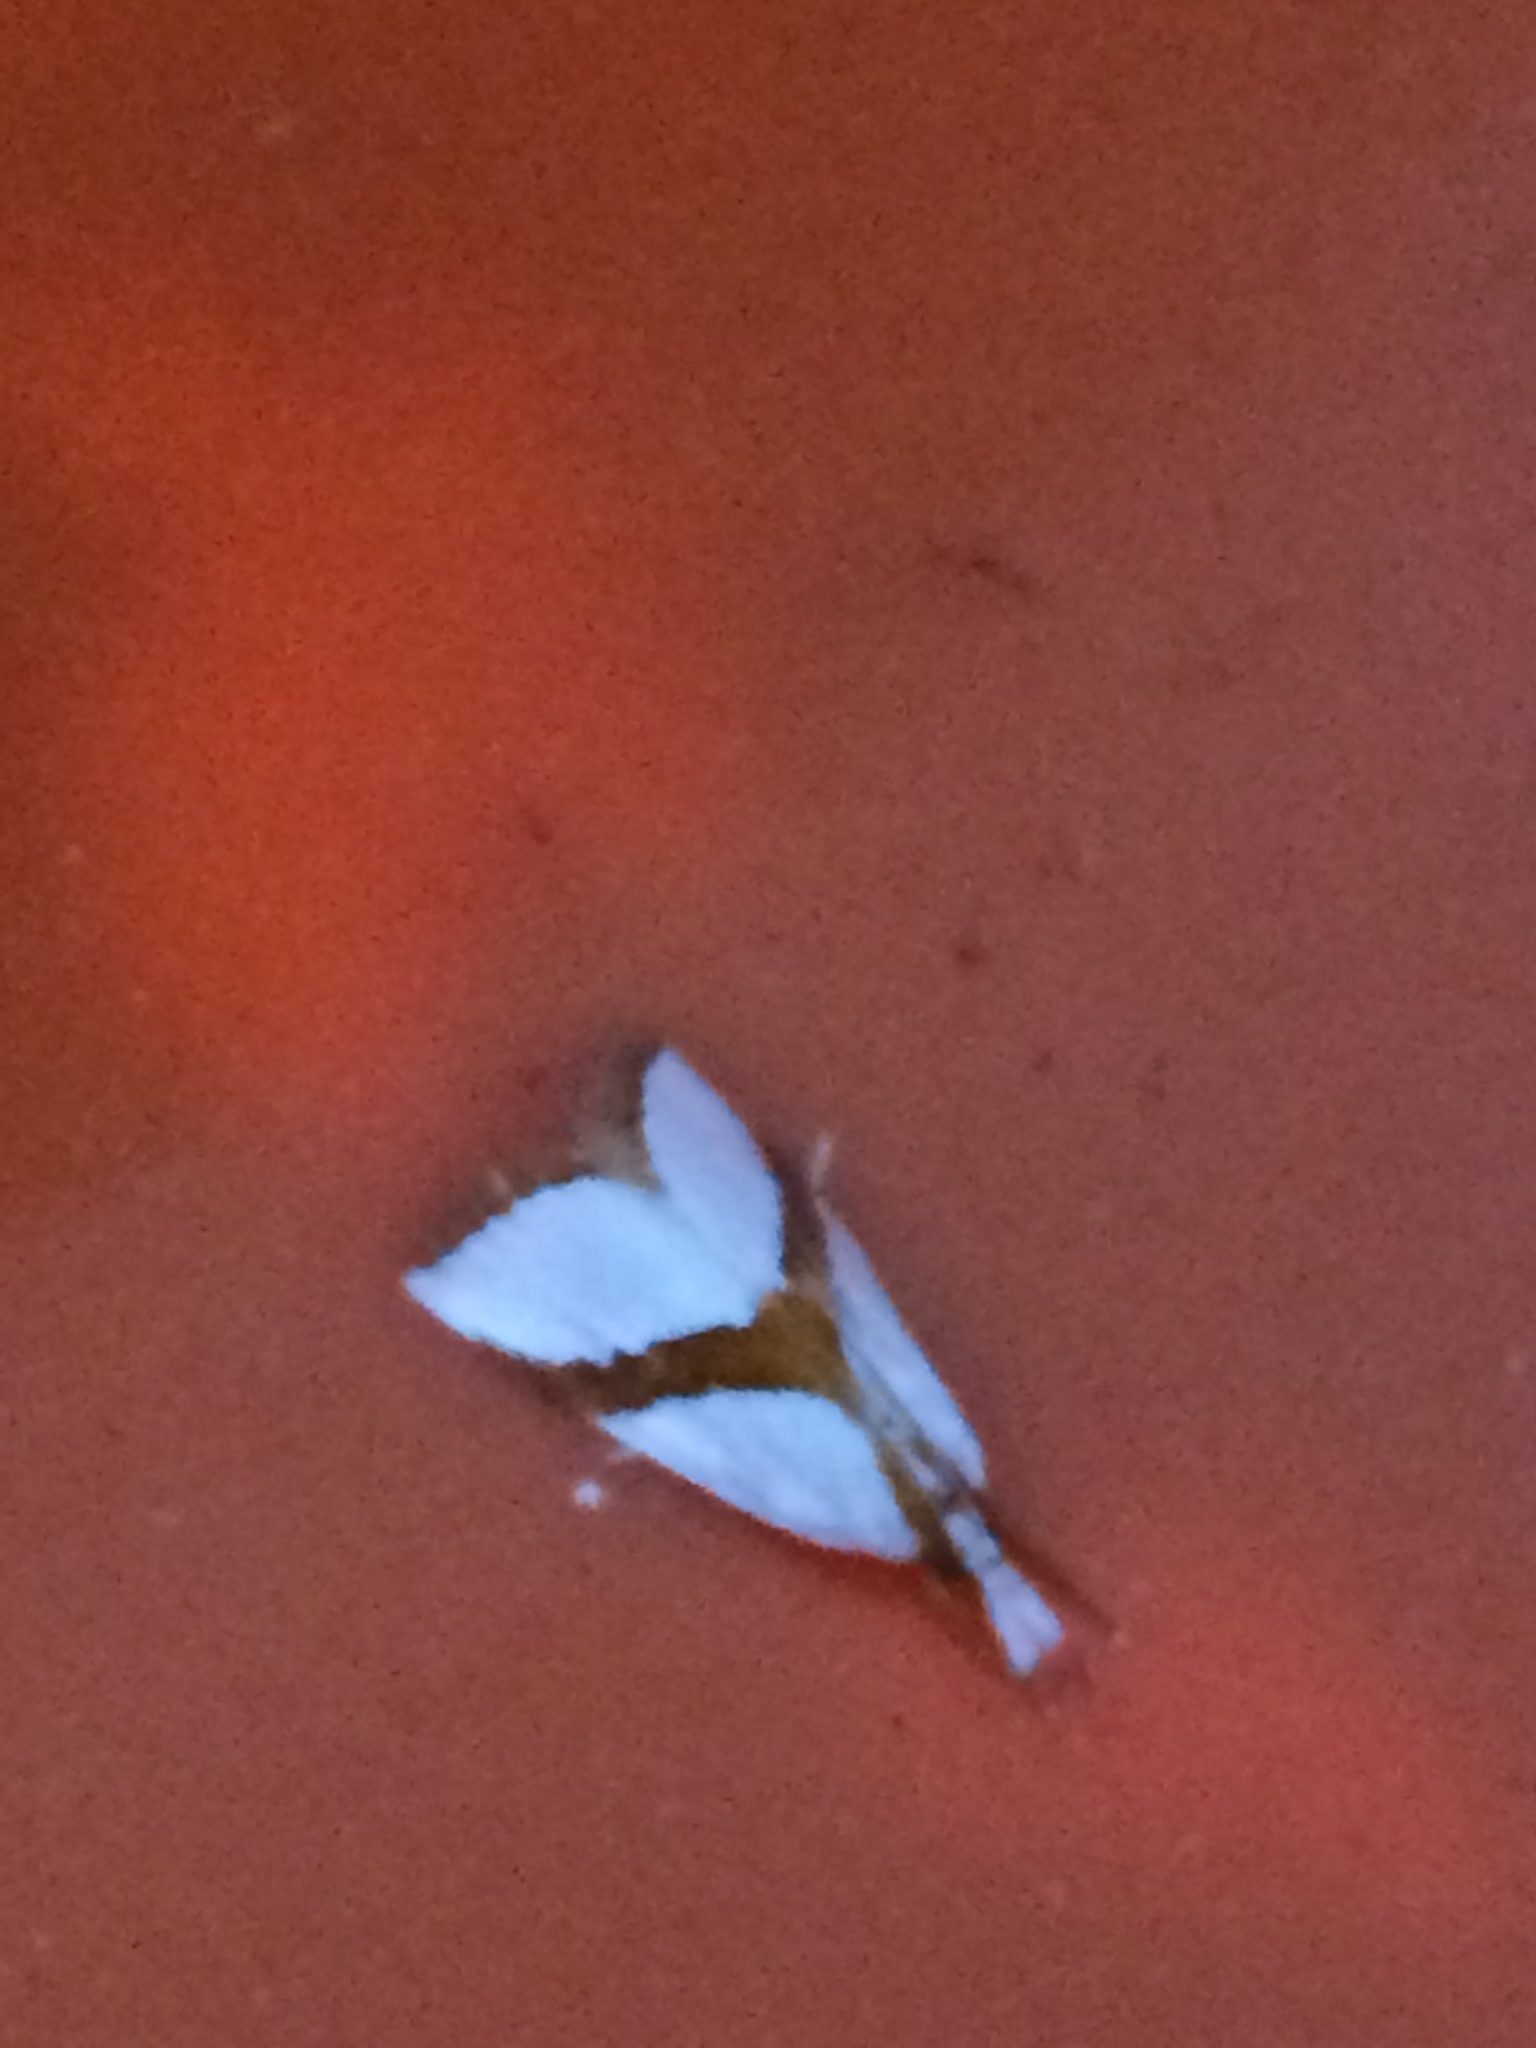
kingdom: Animalia
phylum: Arthropoda
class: Insecta
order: Lepidoptera
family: Crambidae
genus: Vaxi
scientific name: Vaxi critica
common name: Straight-lined vaxi moth
